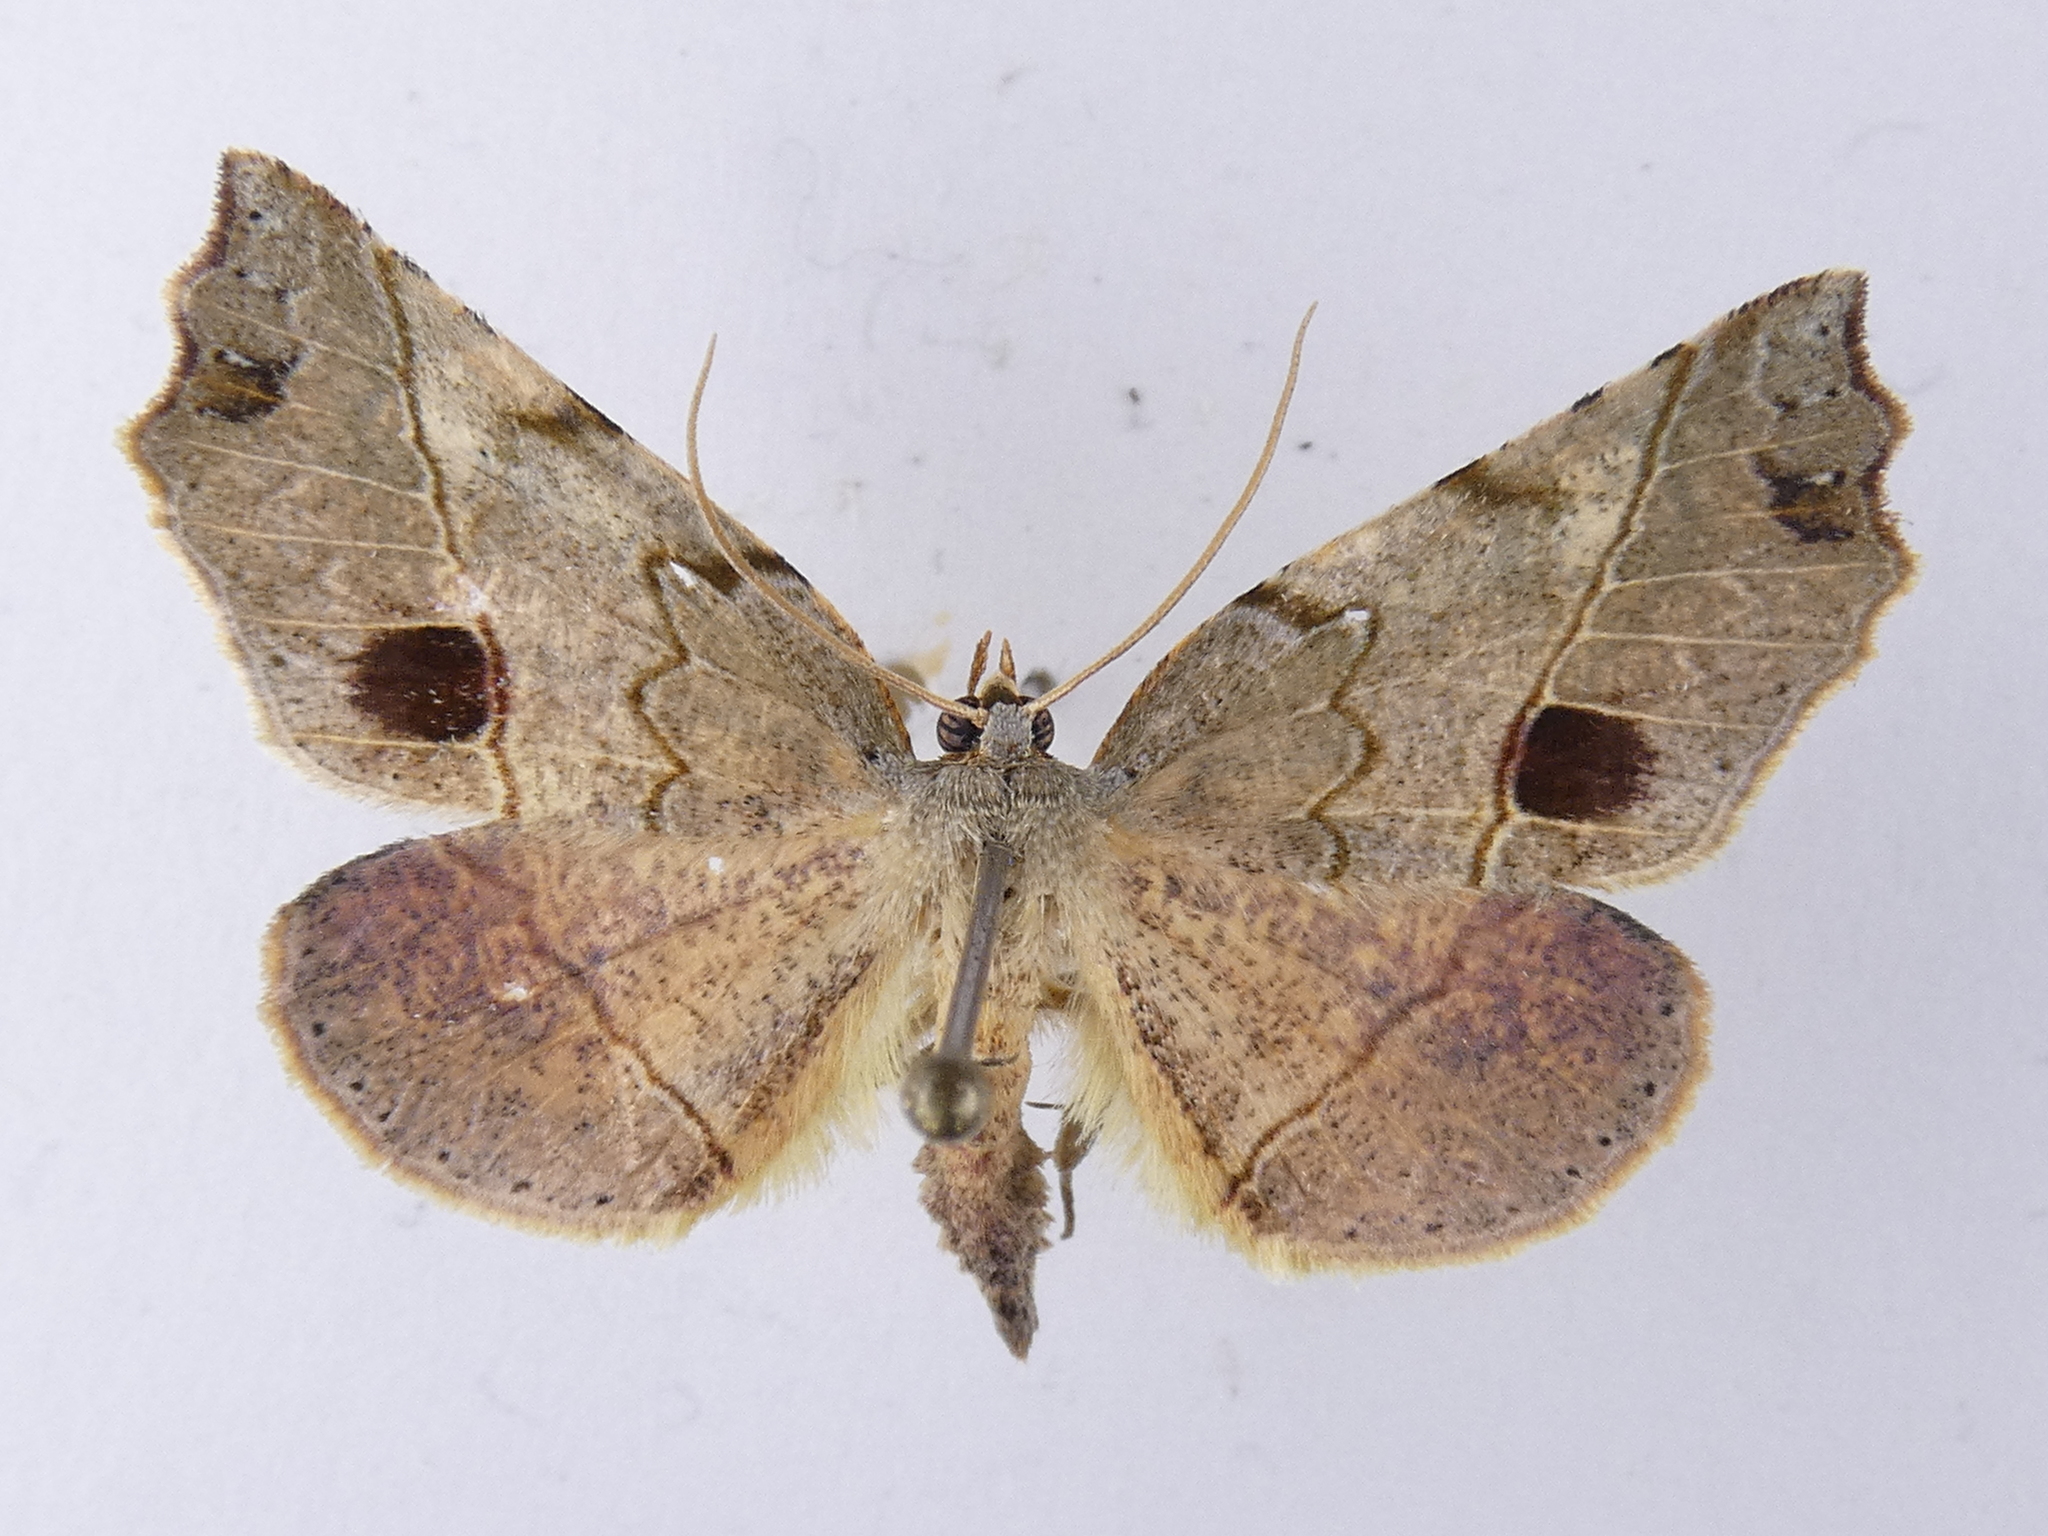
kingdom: Animalia
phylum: Arthropoda
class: Insecta
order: Lepidoptera
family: Geometridae
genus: Ischalis
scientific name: Ischalis gallaria
